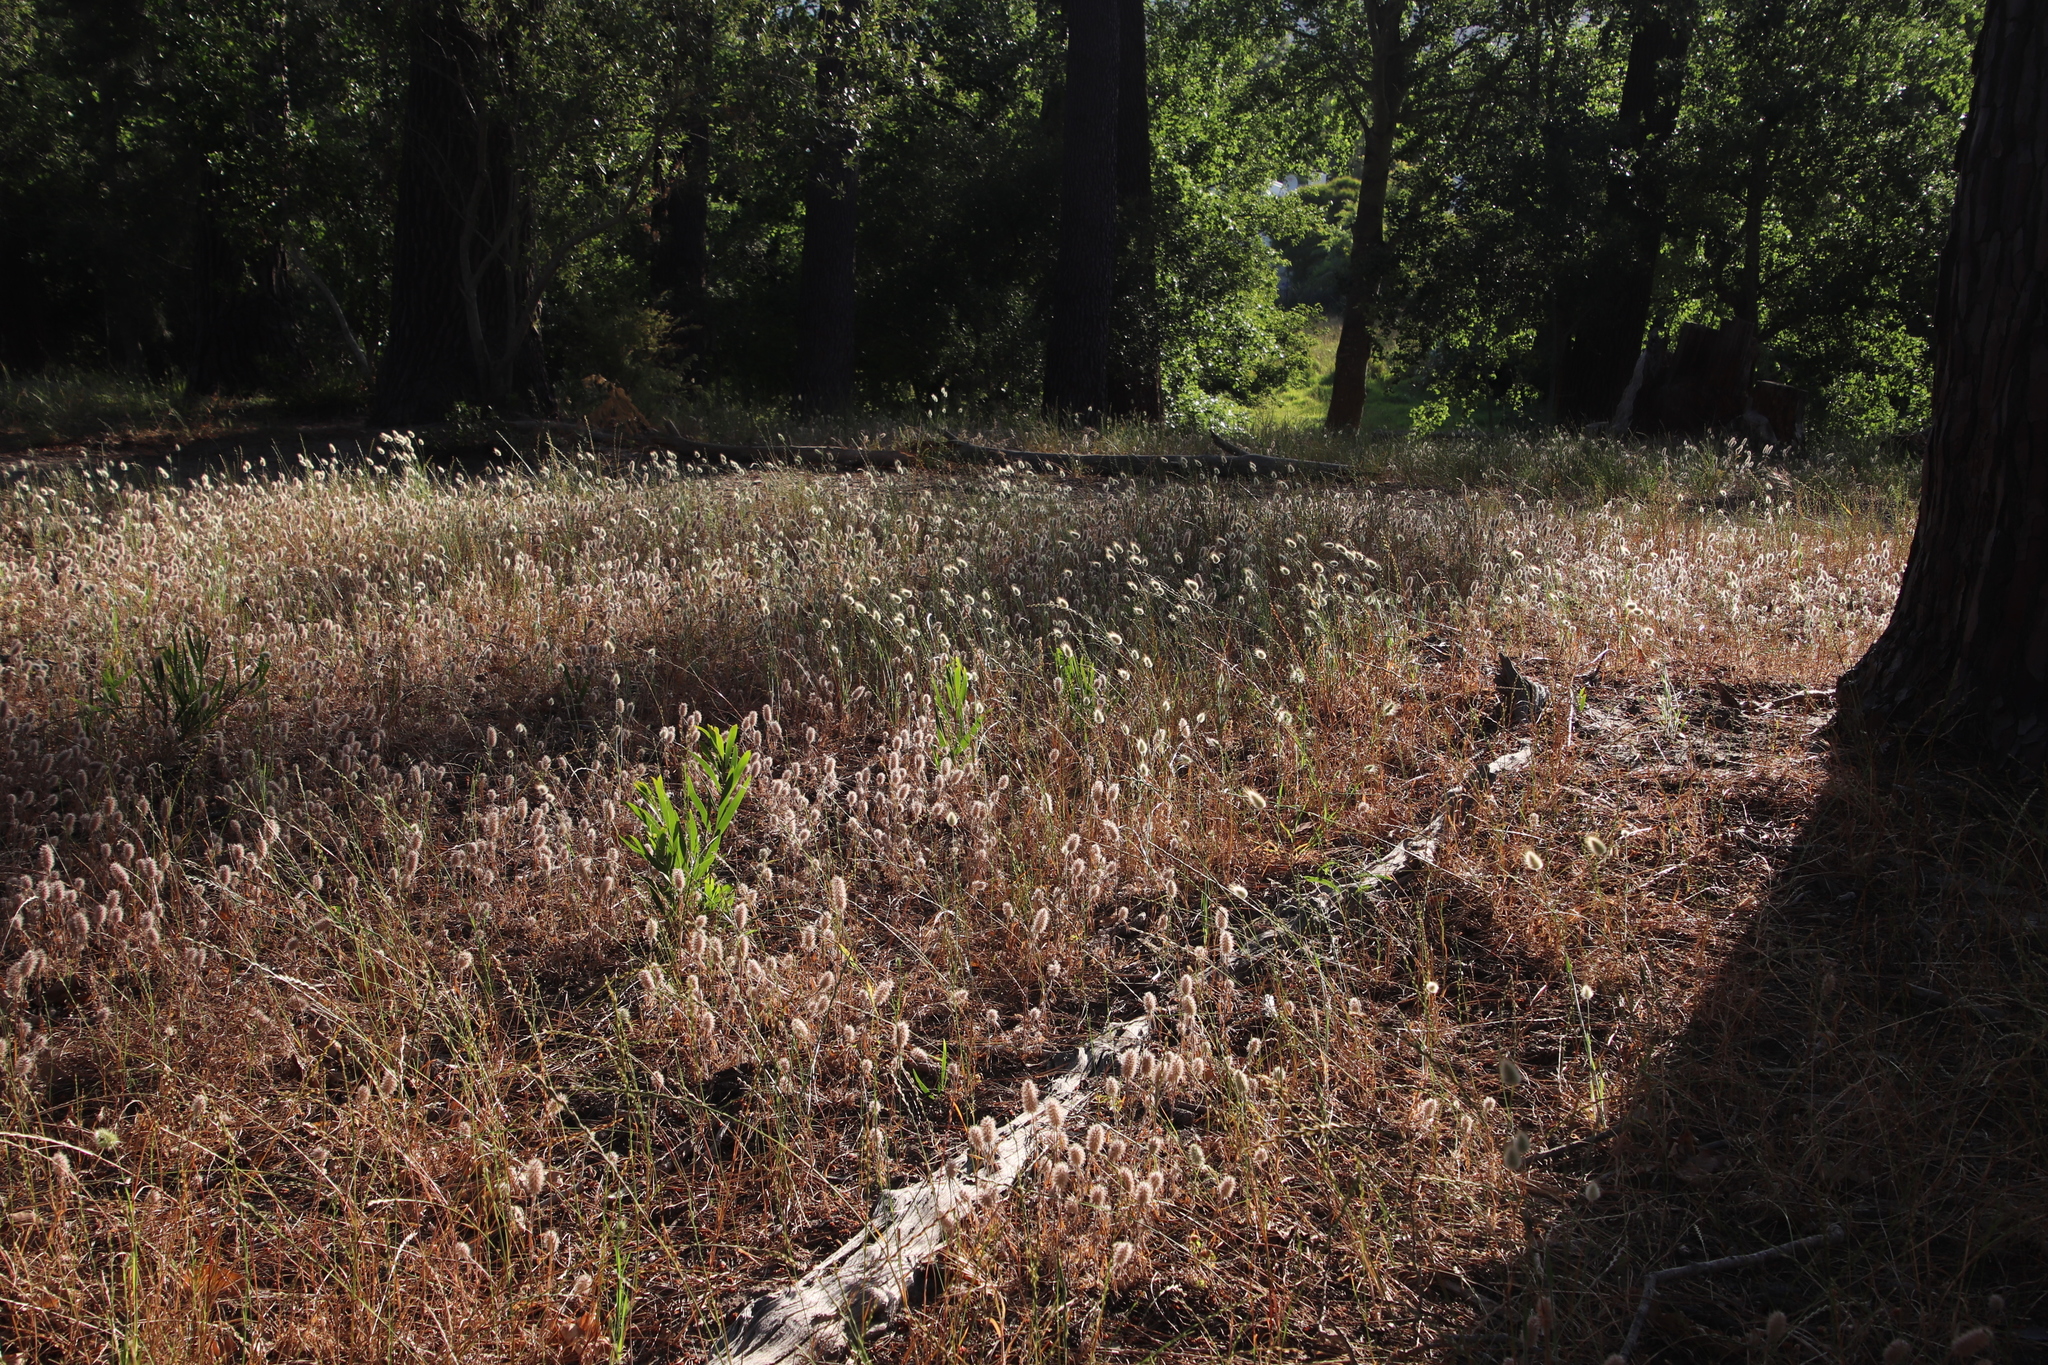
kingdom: Plantae
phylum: Tracheophyta
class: Liliopsida
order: Poales
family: Poaceae
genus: Lagurus
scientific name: Lagurus ovatus
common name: Hare's-tail
